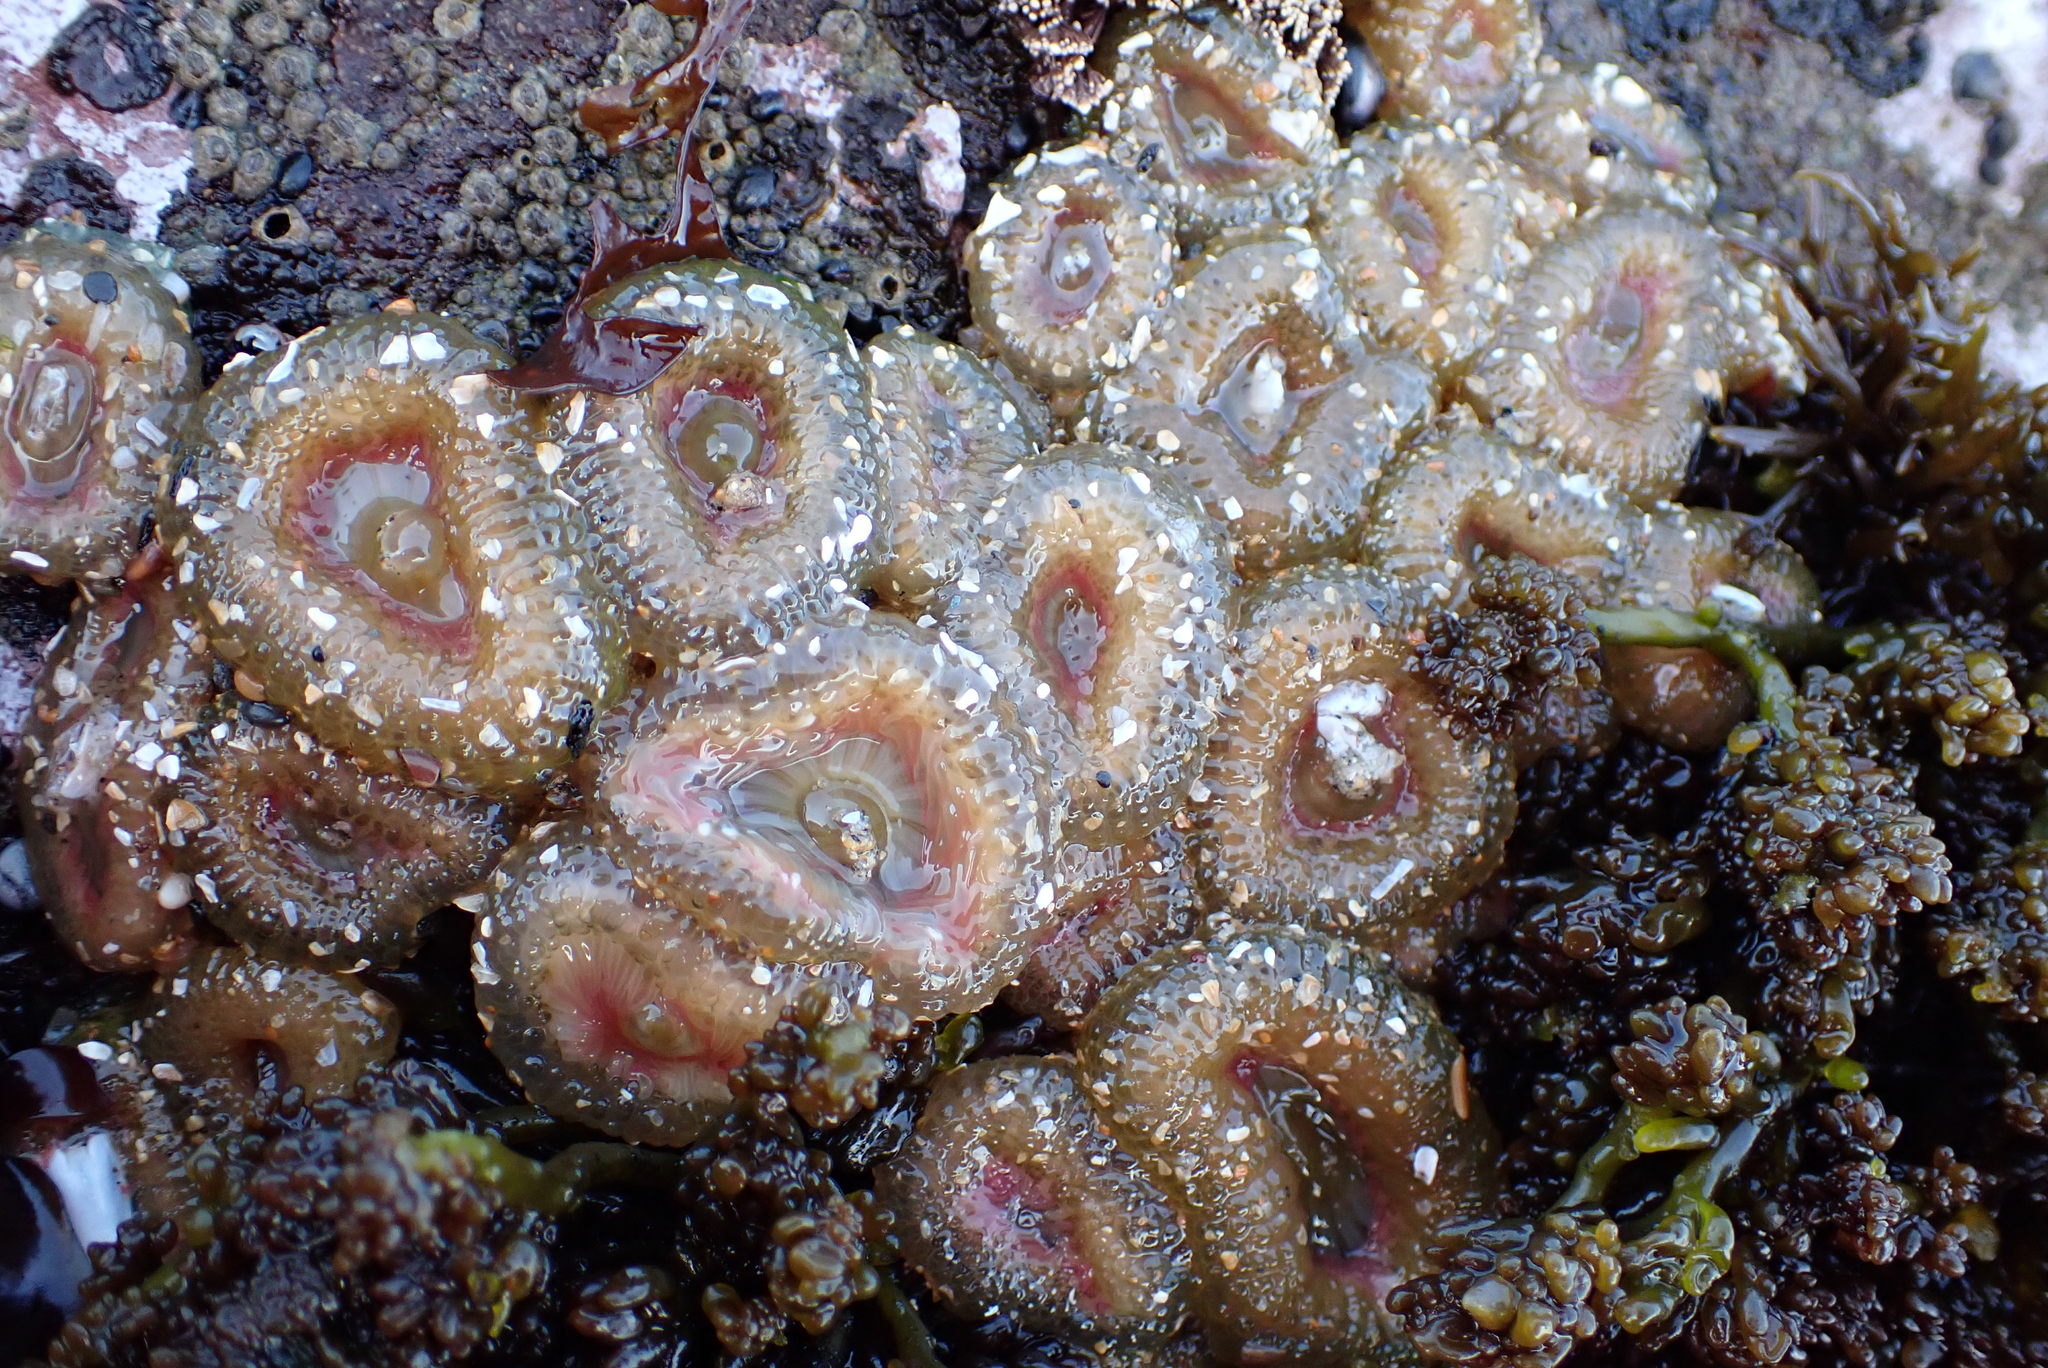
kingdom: Animalia
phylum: Cnidaria
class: Anthozoa
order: Actiniaria
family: Actiniidae
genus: Anthopleura
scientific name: Anthopleura elegantissima
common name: Clonal anemone
